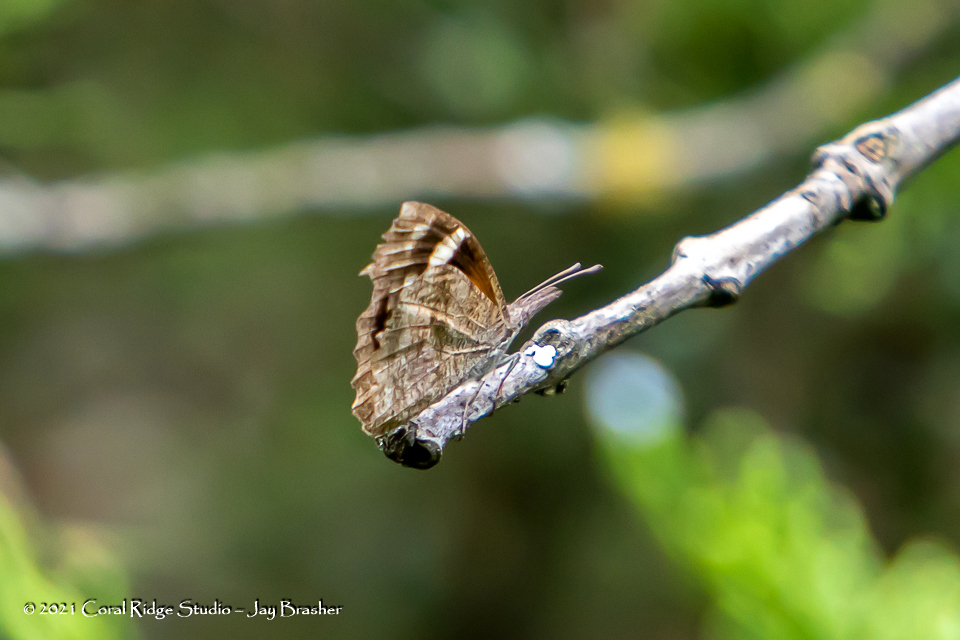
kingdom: Animalia
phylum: Arthropoda
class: Insecta
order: Lepidoptera
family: Nymphalidae
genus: Libytheana
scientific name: Libytheana carinenta
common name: American snout
